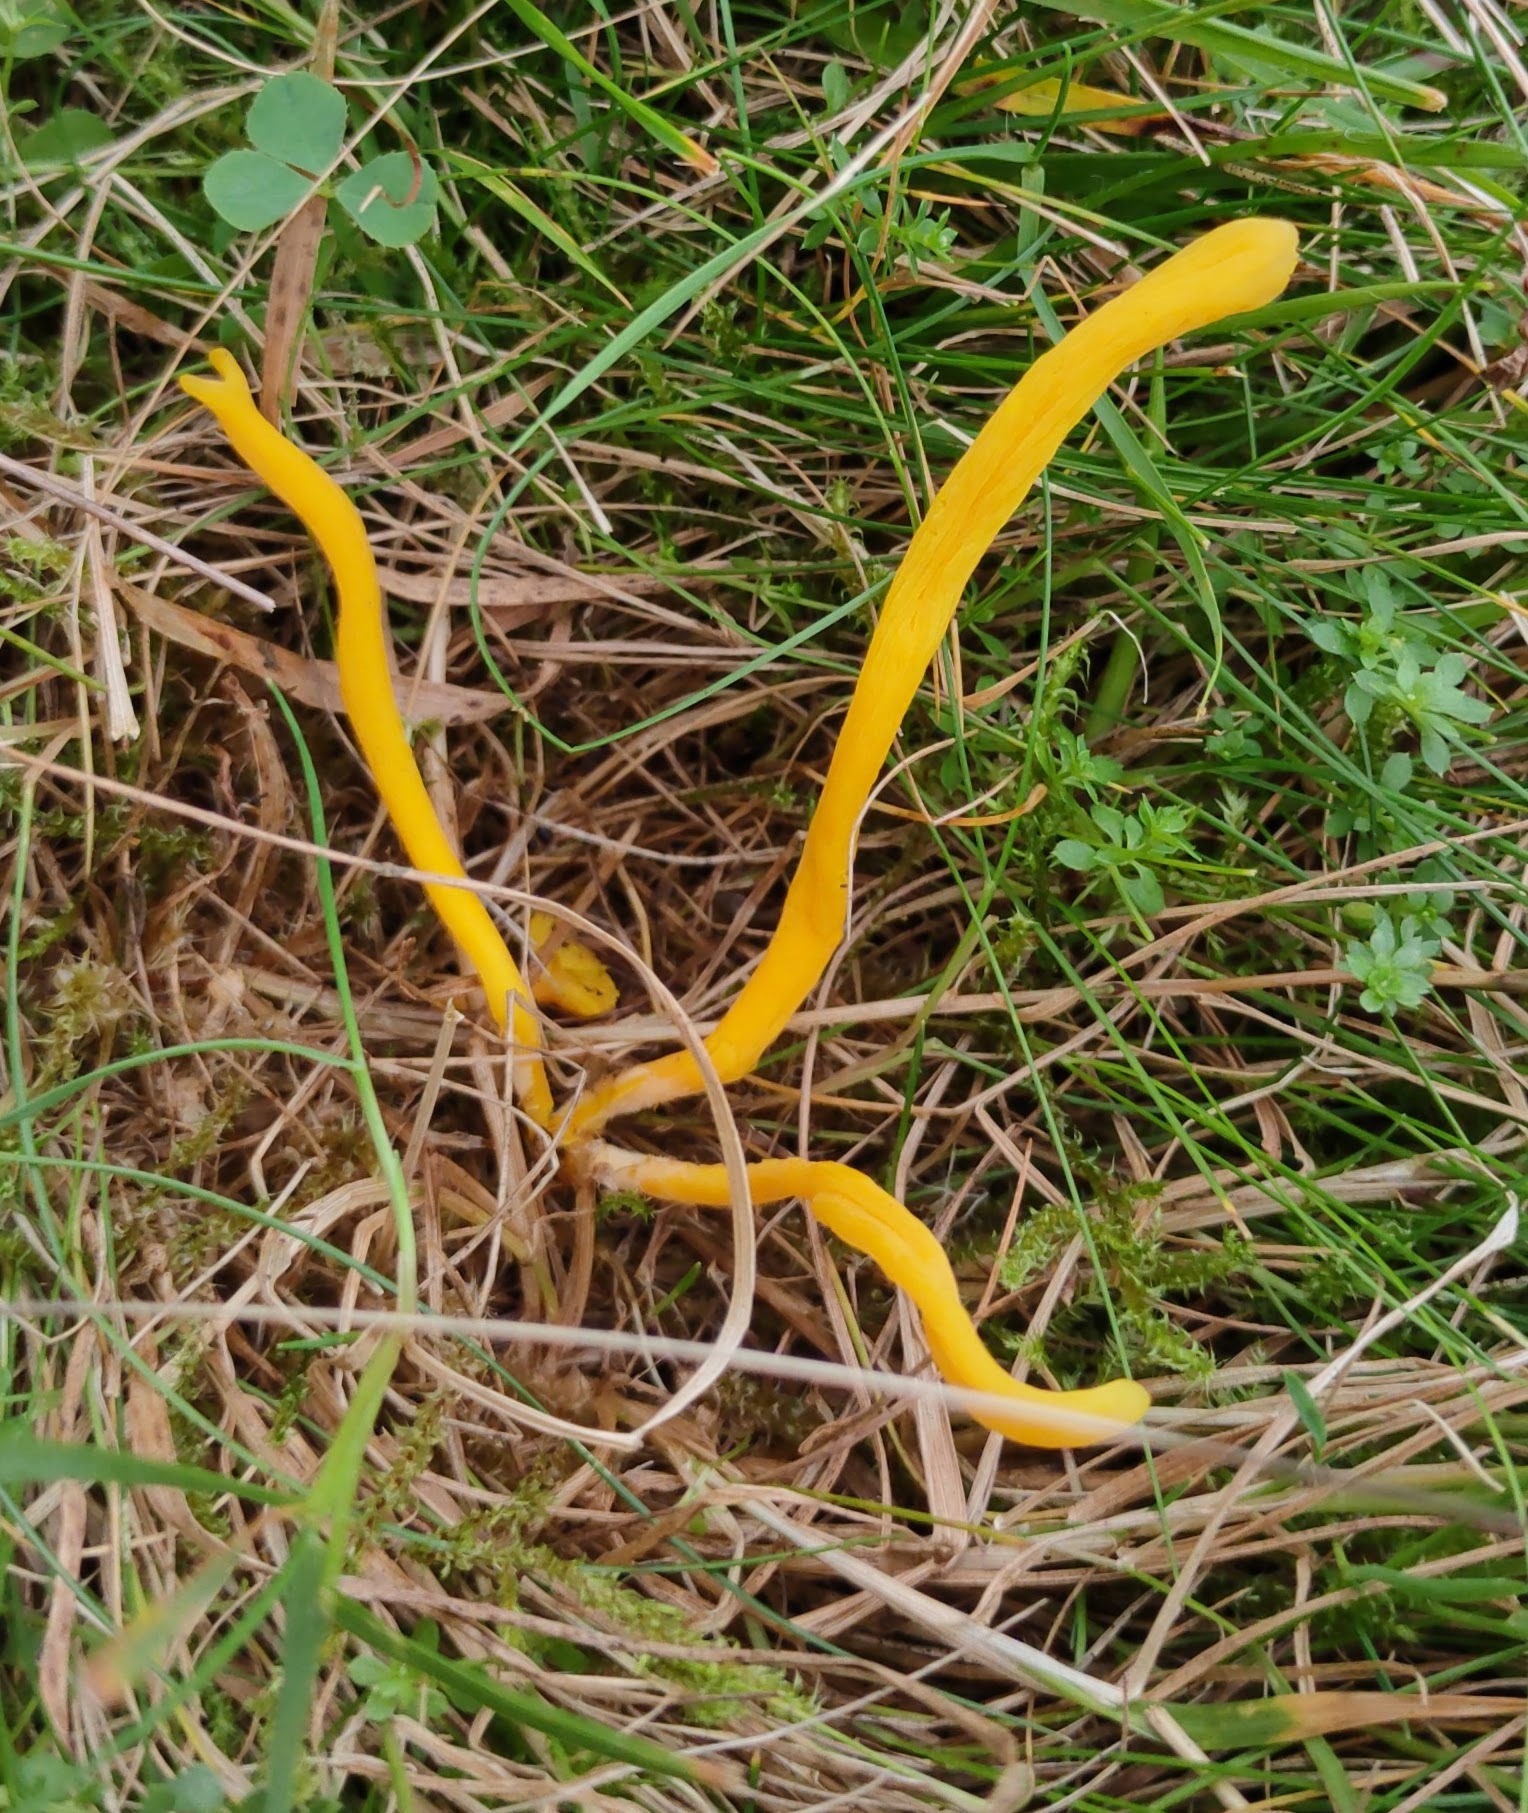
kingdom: Fungi
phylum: Basidiomycota
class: Agaricomycetes
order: Agaricales
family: Clavariaceae
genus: Clavulinopsis
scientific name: Clavulinopsis helvola
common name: Yellow club
